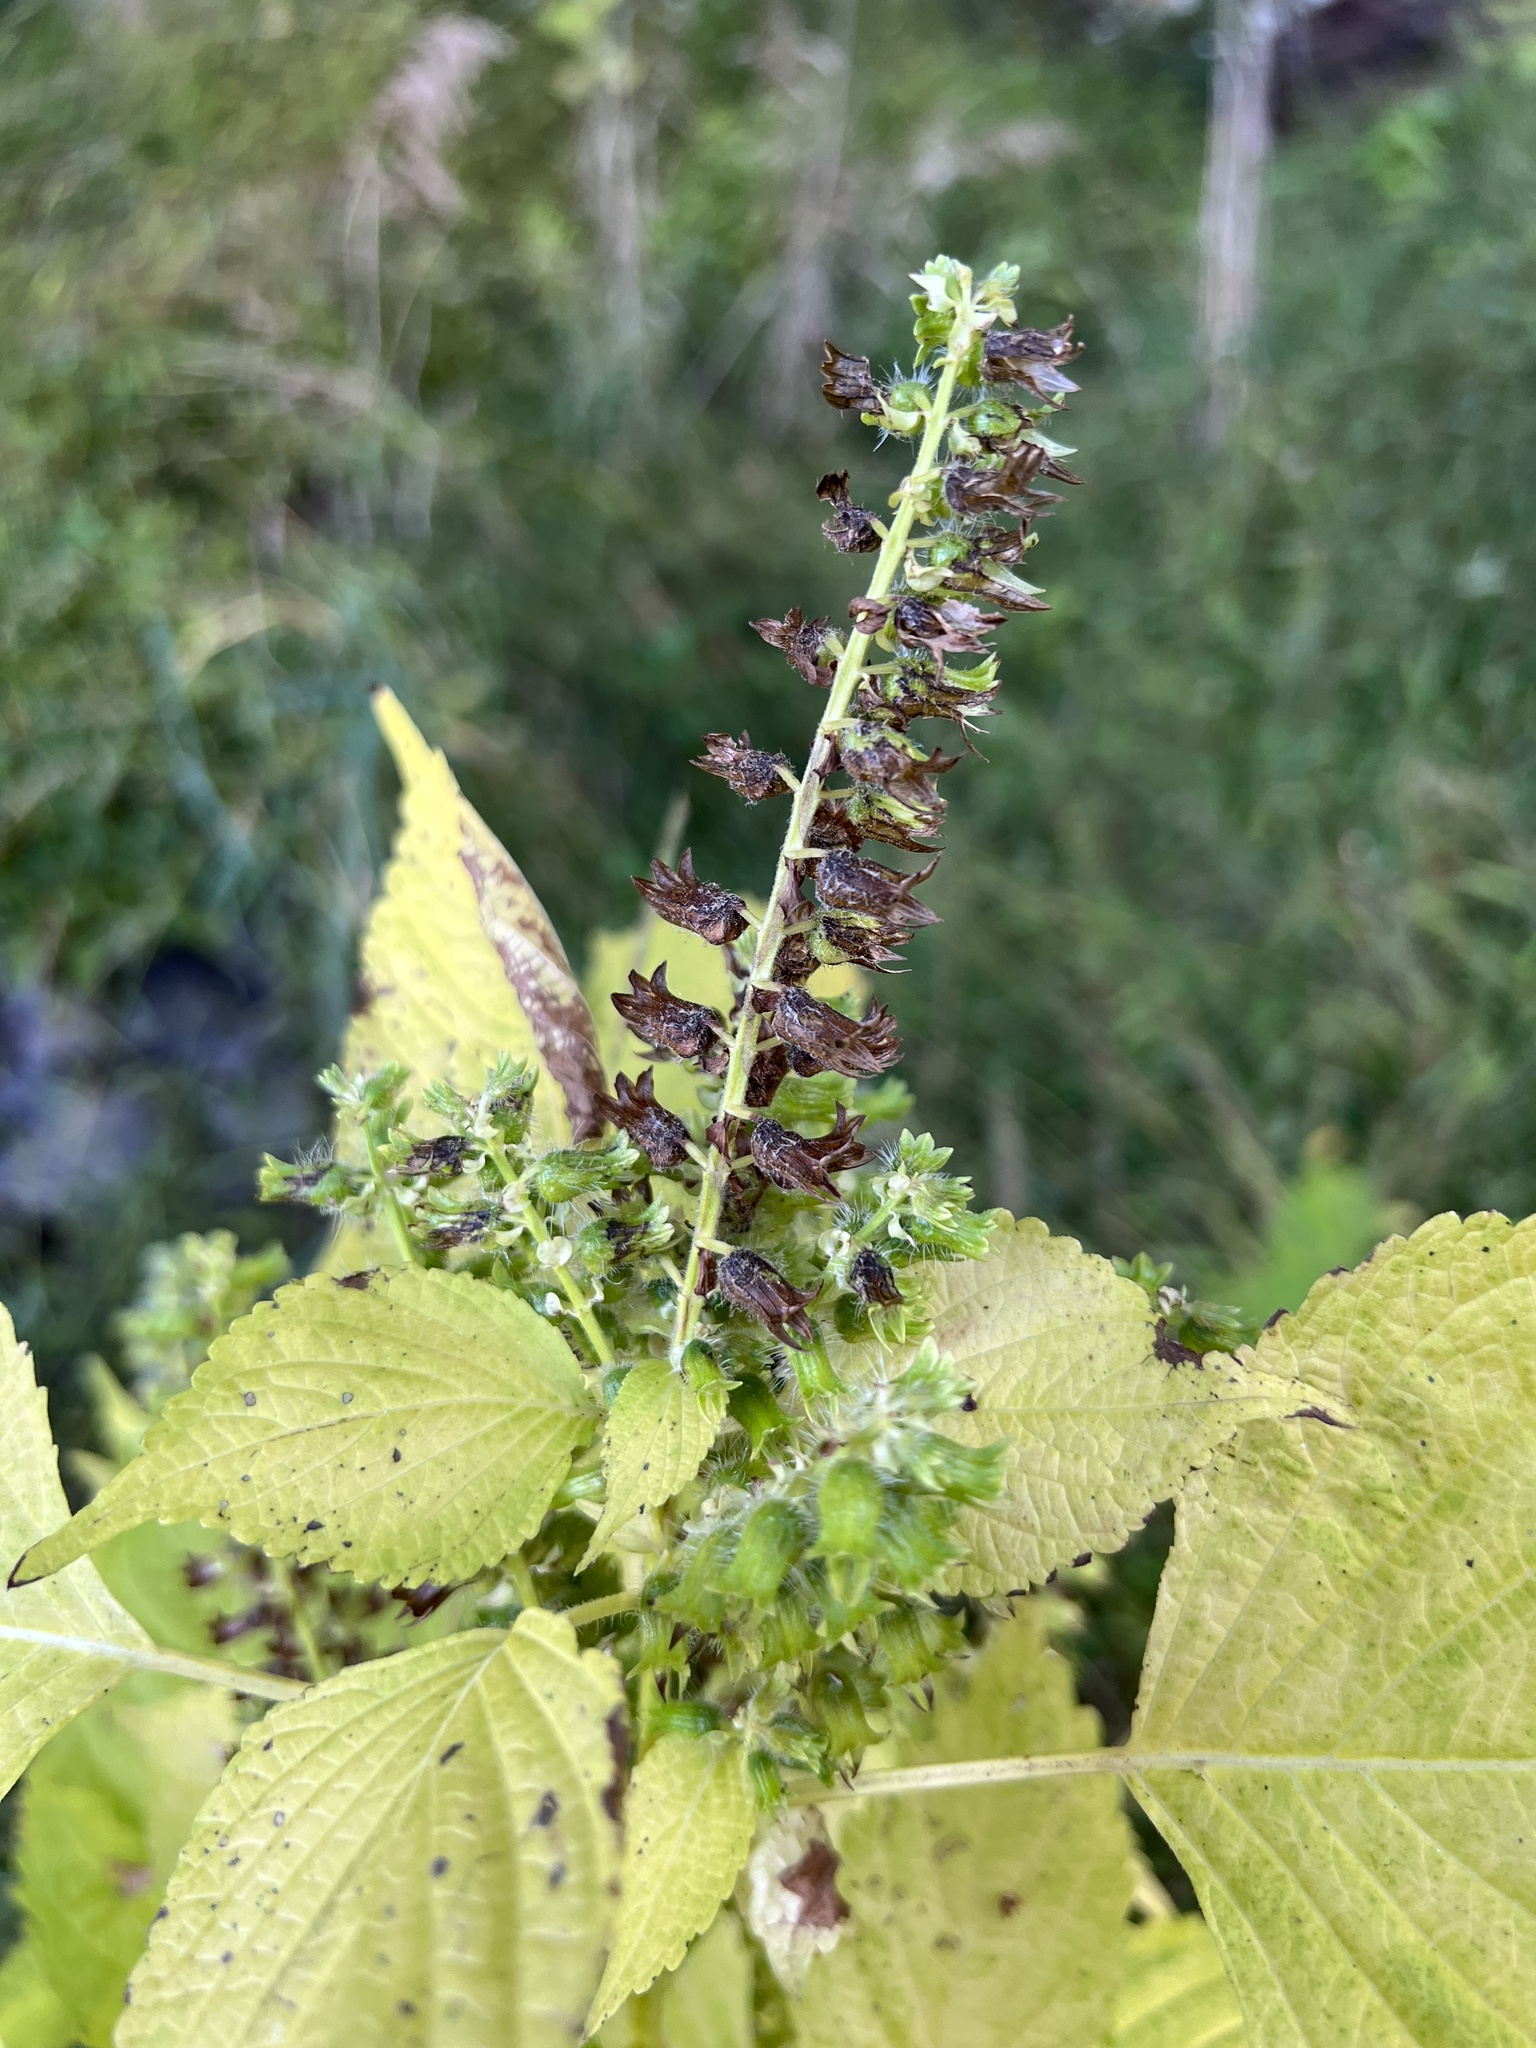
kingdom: Plantae
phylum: Tracheophyta
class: Magnoliopsida
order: Lamiales
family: Lamiaceae
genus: Perilla
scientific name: Perilla frutescens
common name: Perilla
